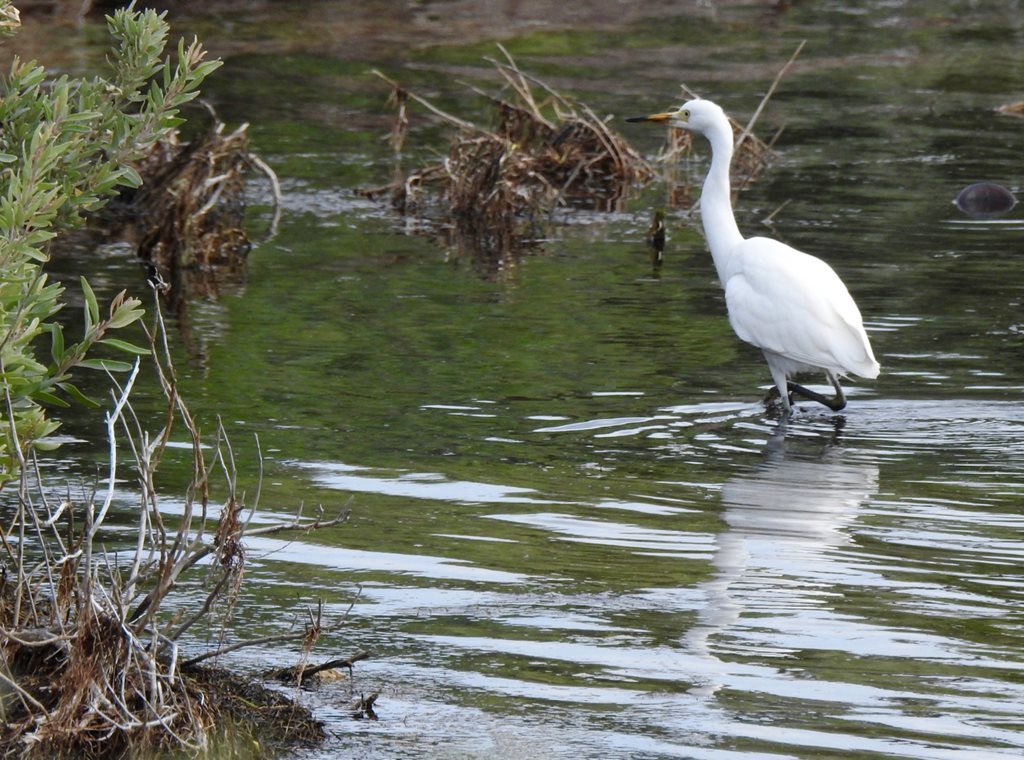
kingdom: Animalia
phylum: Chordata
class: Aves
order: Pelecaniformes
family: Ardeidae
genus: Egretta
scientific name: Egretta garzetta
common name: Little egret
